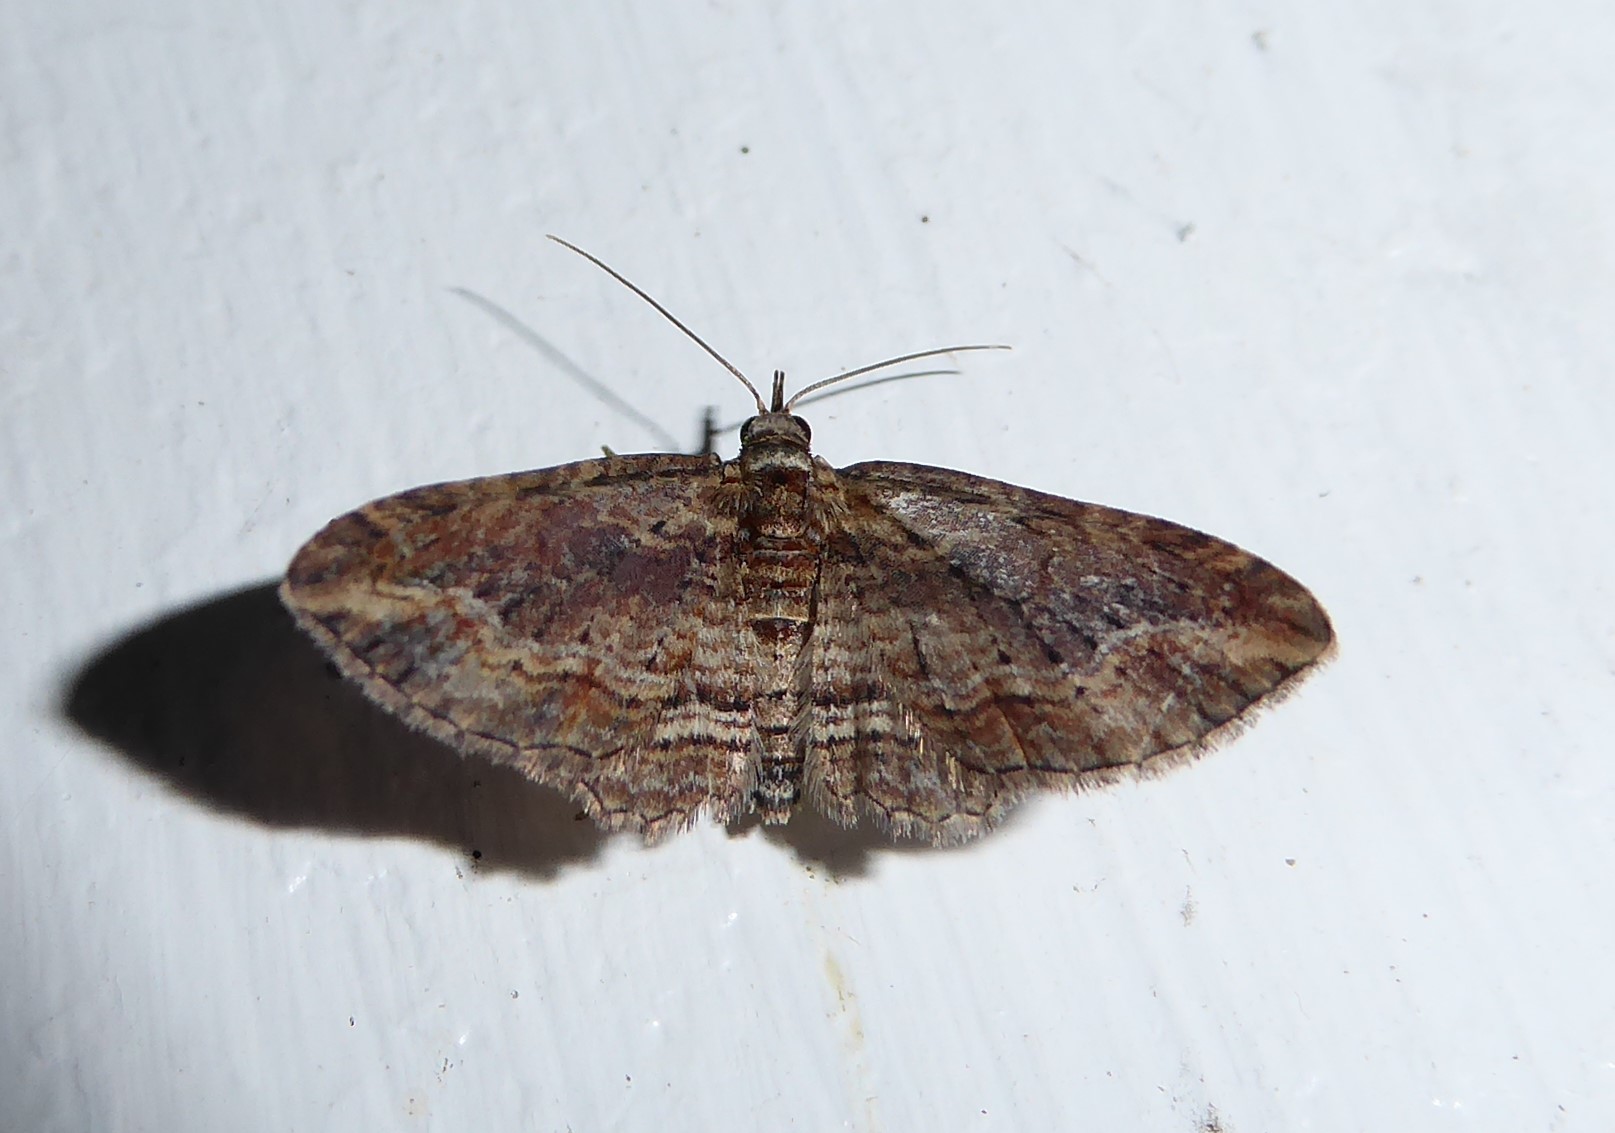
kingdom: Animalia
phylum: Arthropoda
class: Insecta
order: Lepidoptera
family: Geometridae
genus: Chloroclystis
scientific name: Chloroclystis filata
